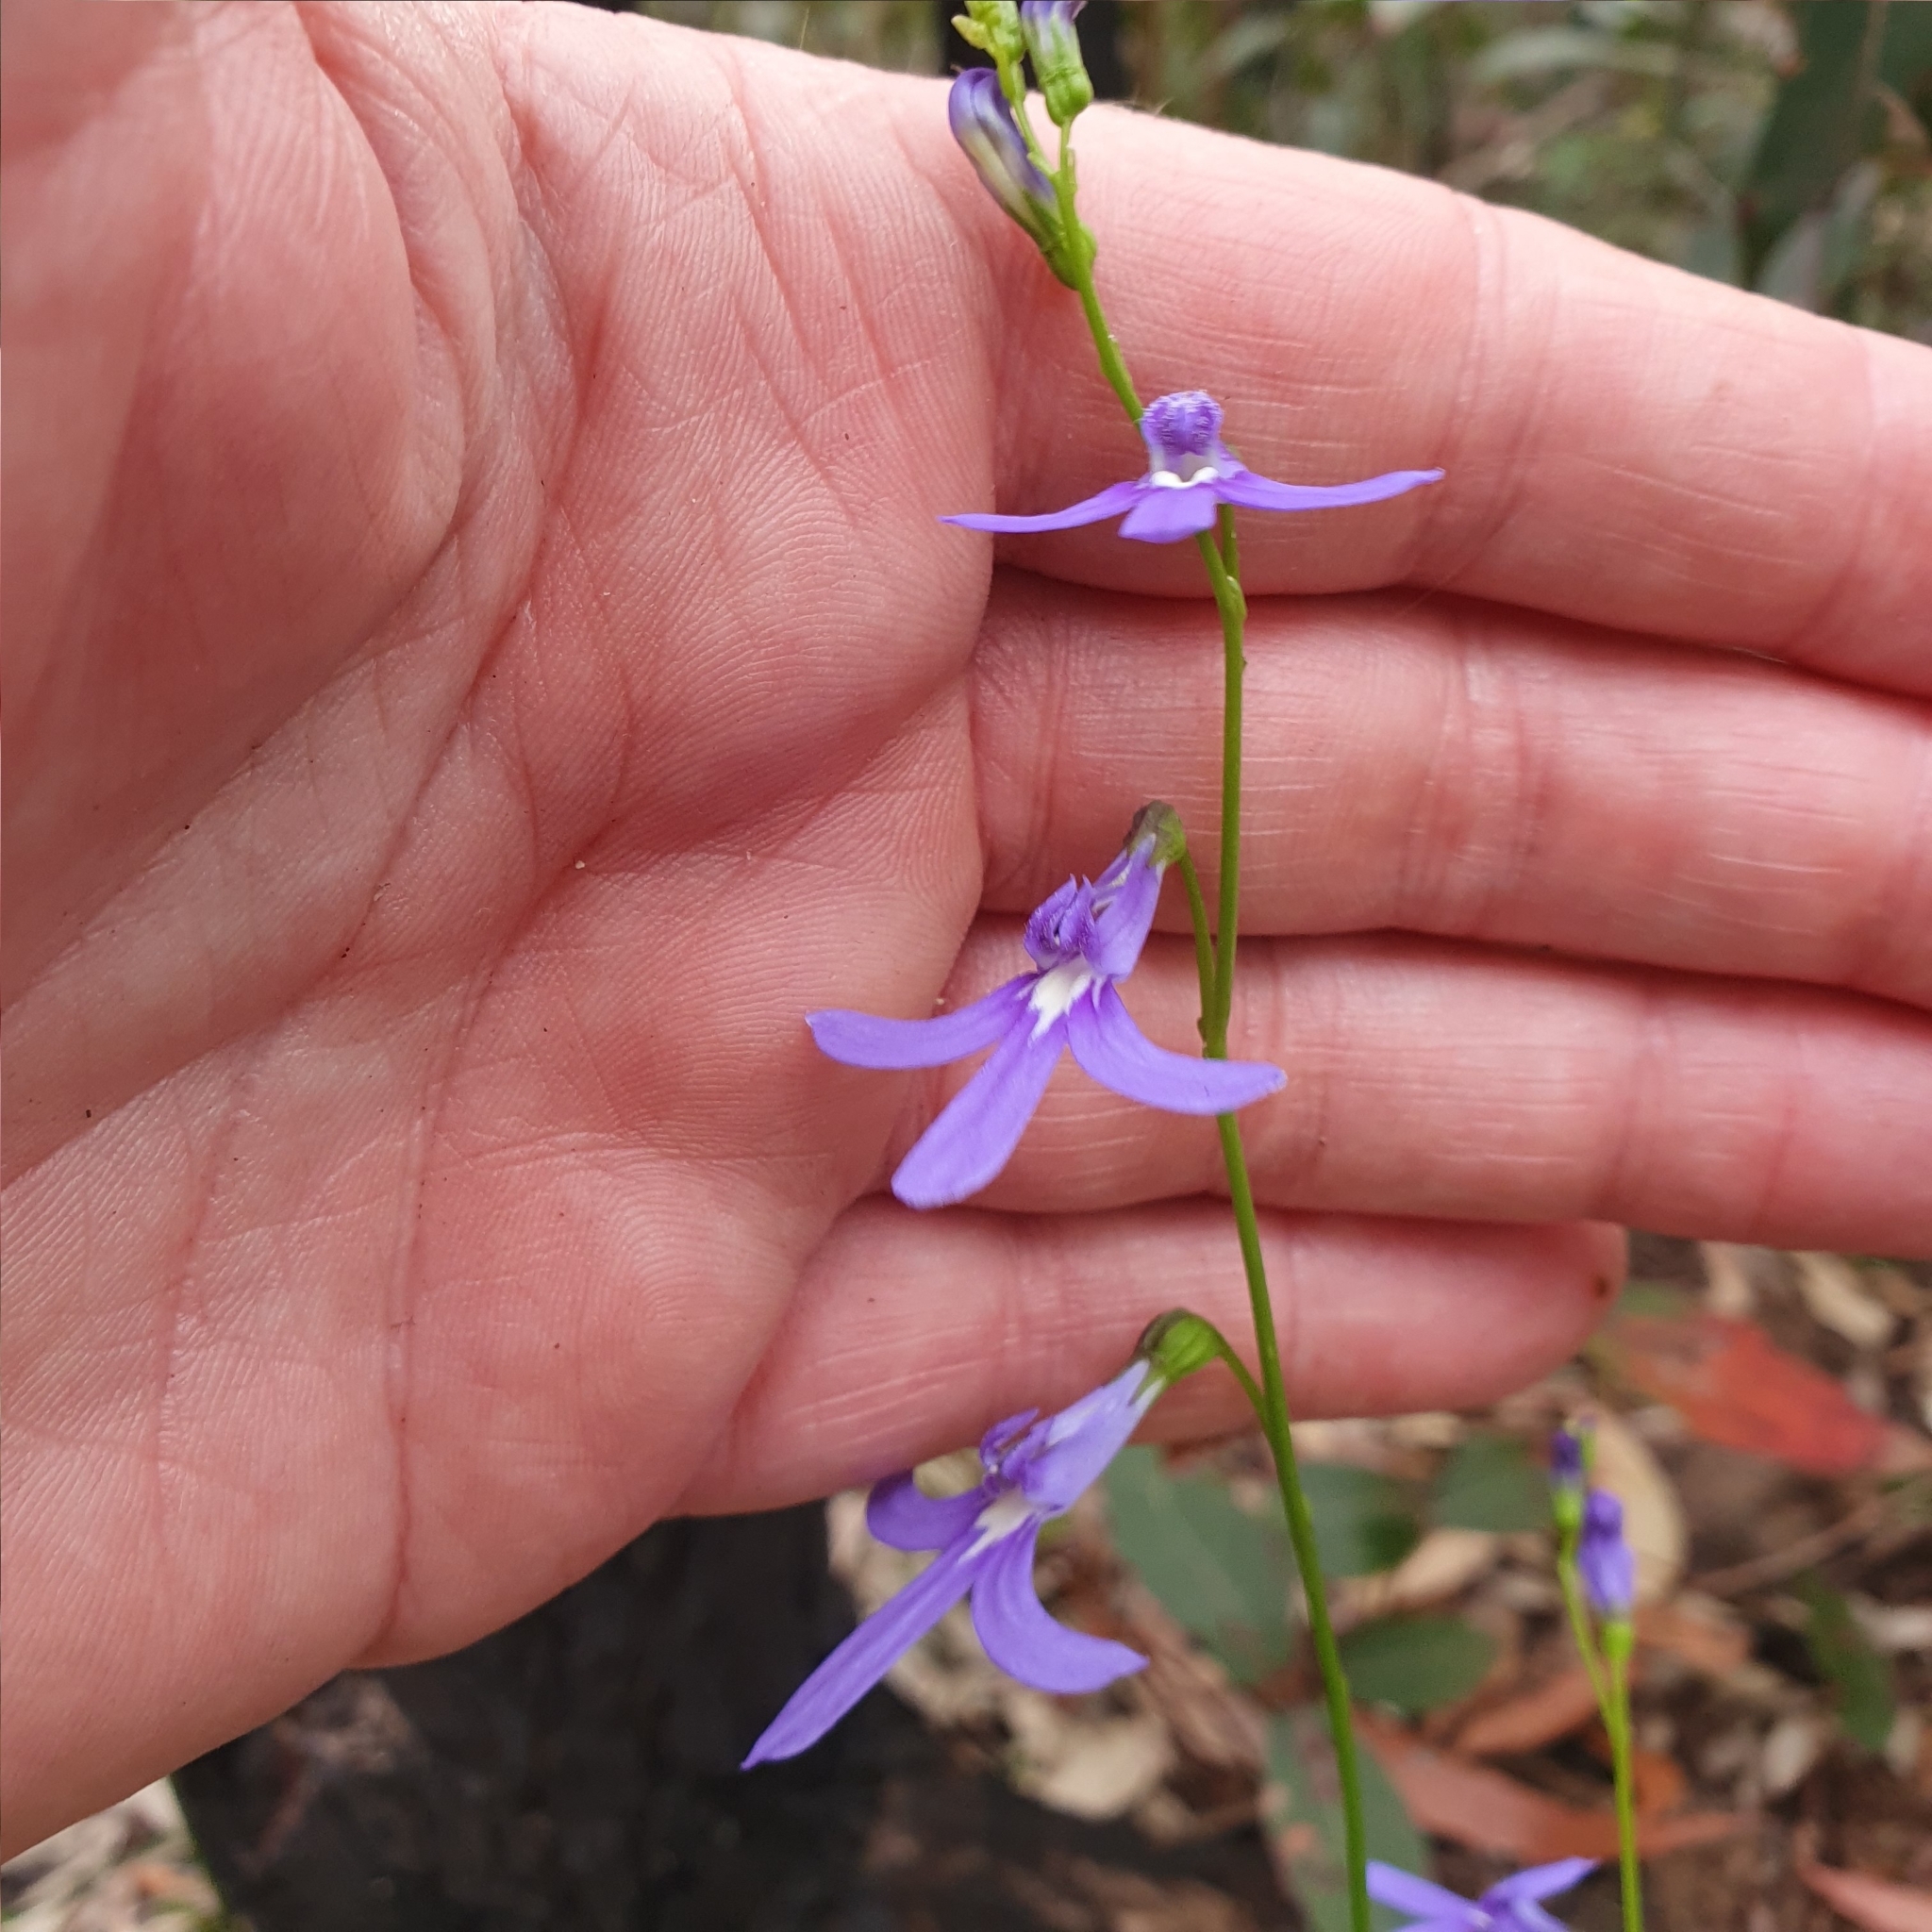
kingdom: Plantae
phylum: Tracheophyta
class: Magnoliopsida
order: Asterales
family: Campanulaceae
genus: Lobelia
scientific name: Lobelia dentata
